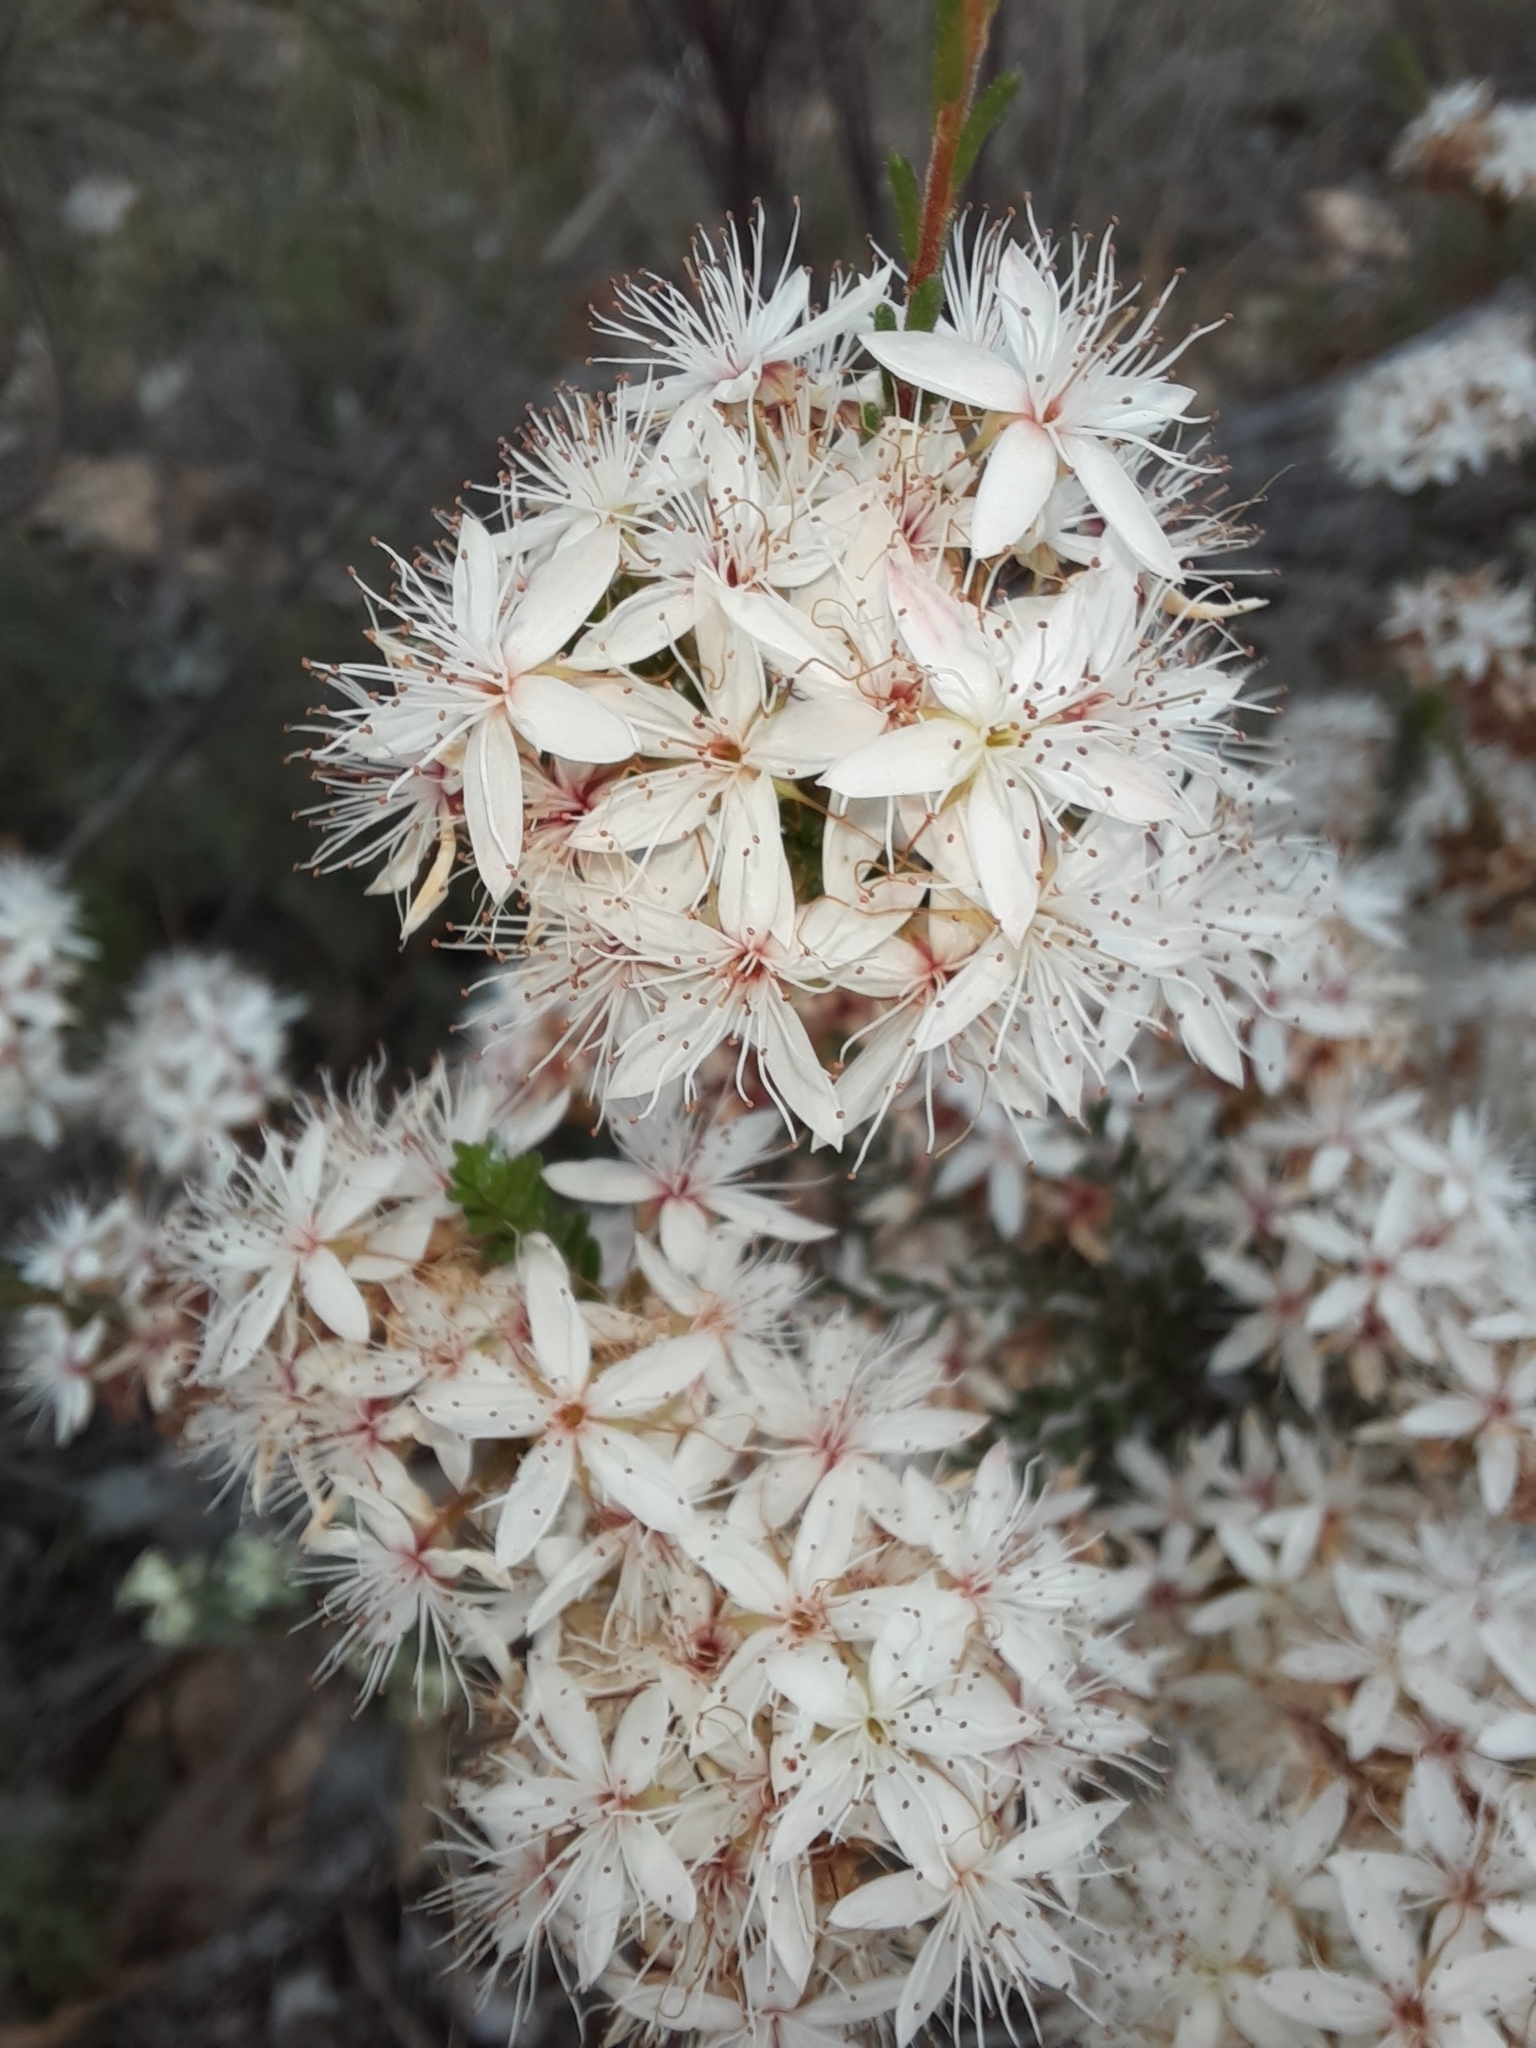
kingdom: Plantae
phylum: Tracheophyta
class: Magnoliopsida
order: Myrtales
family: Myrtaceae
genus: Calytrix
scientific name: Calytrix tetragona
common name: Common fringe myrtle
